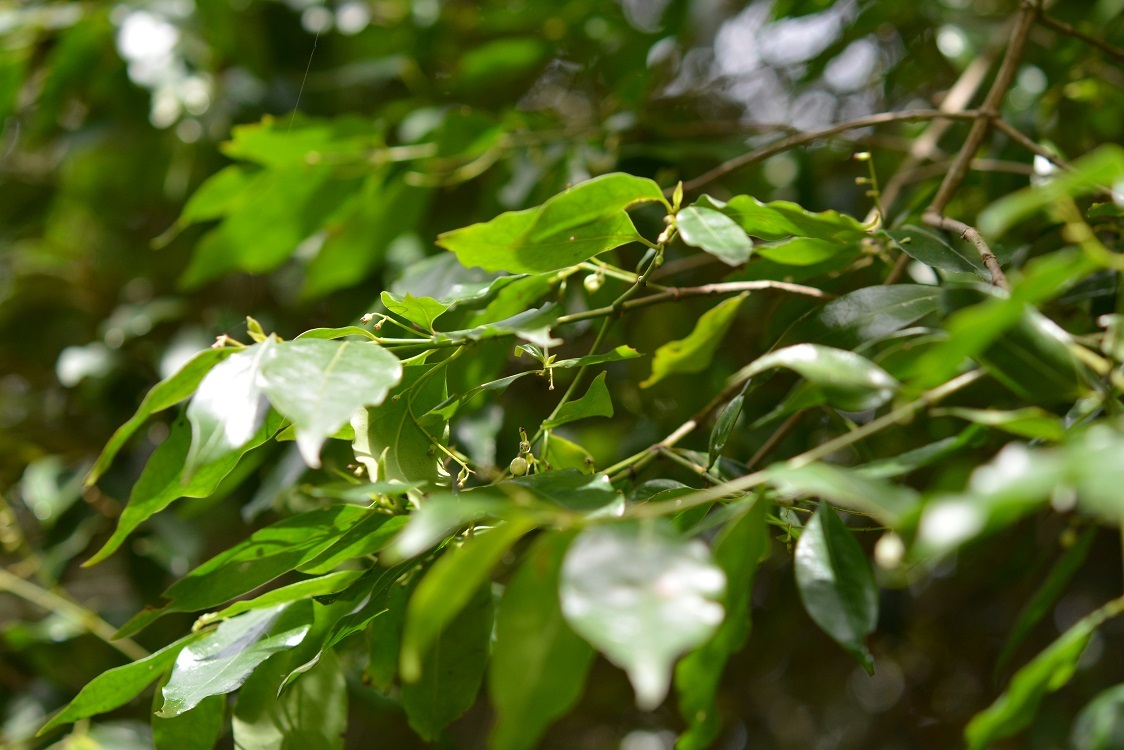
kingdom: Plantae
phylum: Tracheophyta
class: Magnoliopsida
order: Gentianales
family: Rubiaceae
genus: Chiococca
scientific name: Chiococca alba
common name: Snowberry
